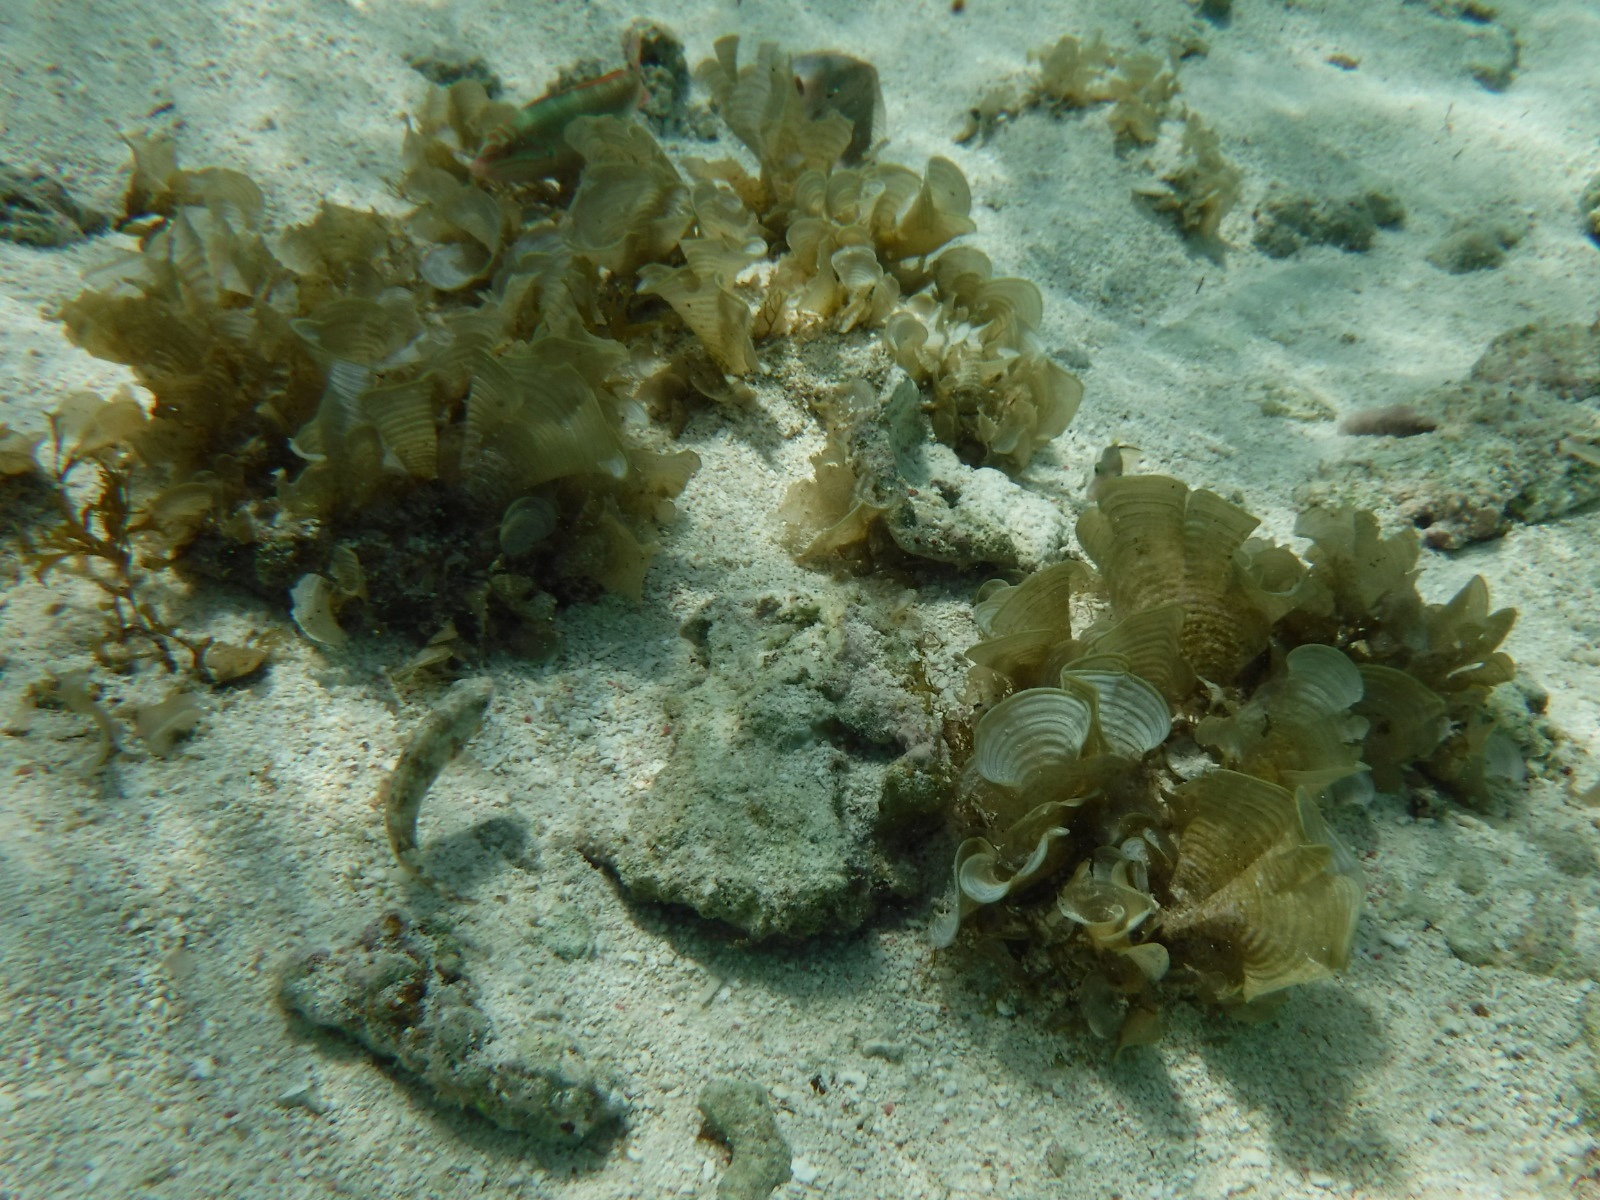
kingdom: Animalia
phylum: Chordata
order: Perciformes
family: Labridae
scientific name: Labridae
